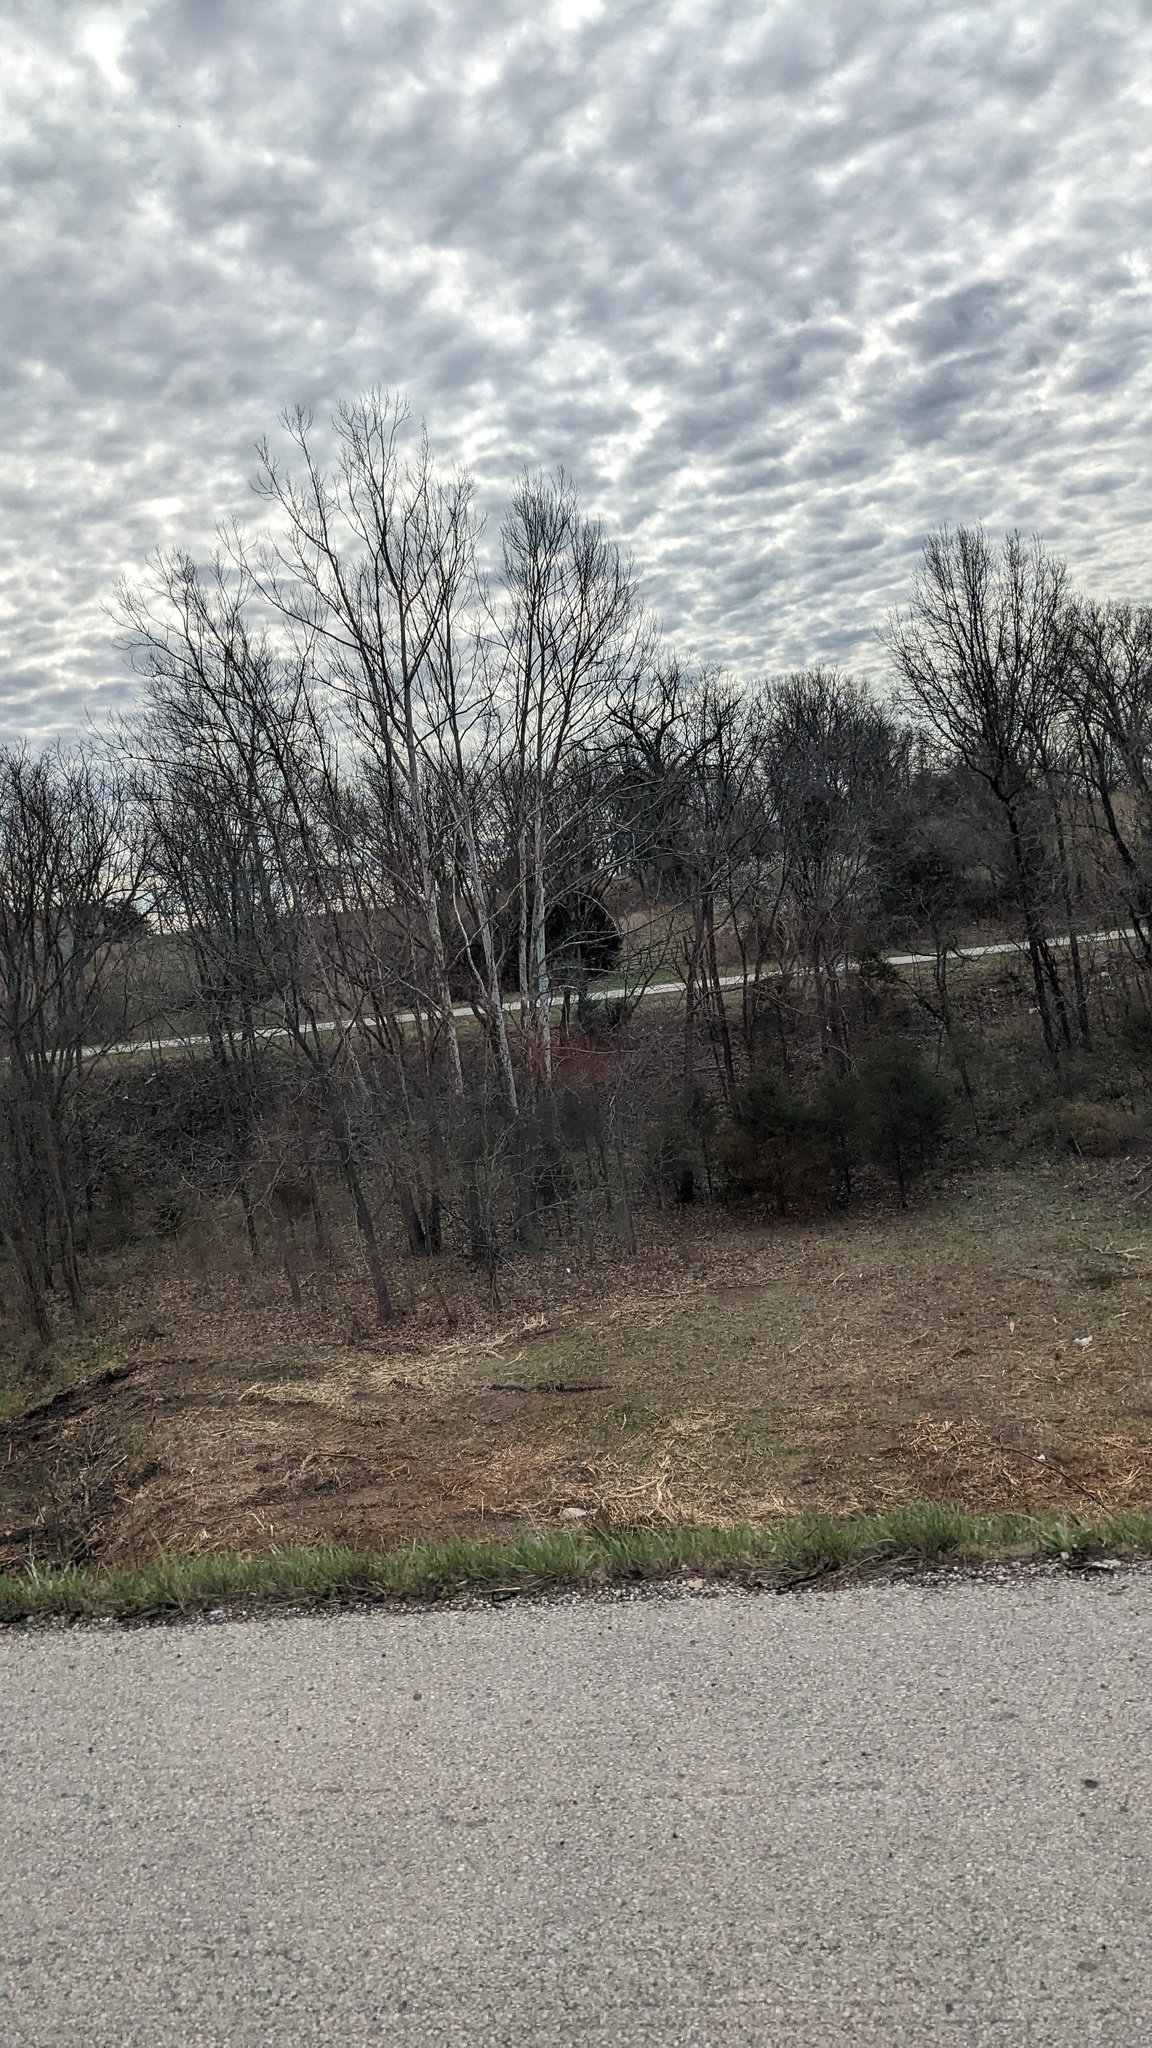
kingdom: Plantae
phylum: Tracheophyta
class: Magnoliopsida
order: Proteales
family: Platanaceae
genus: Platanus
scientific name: Platanus occidentalis
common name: American sycamore
